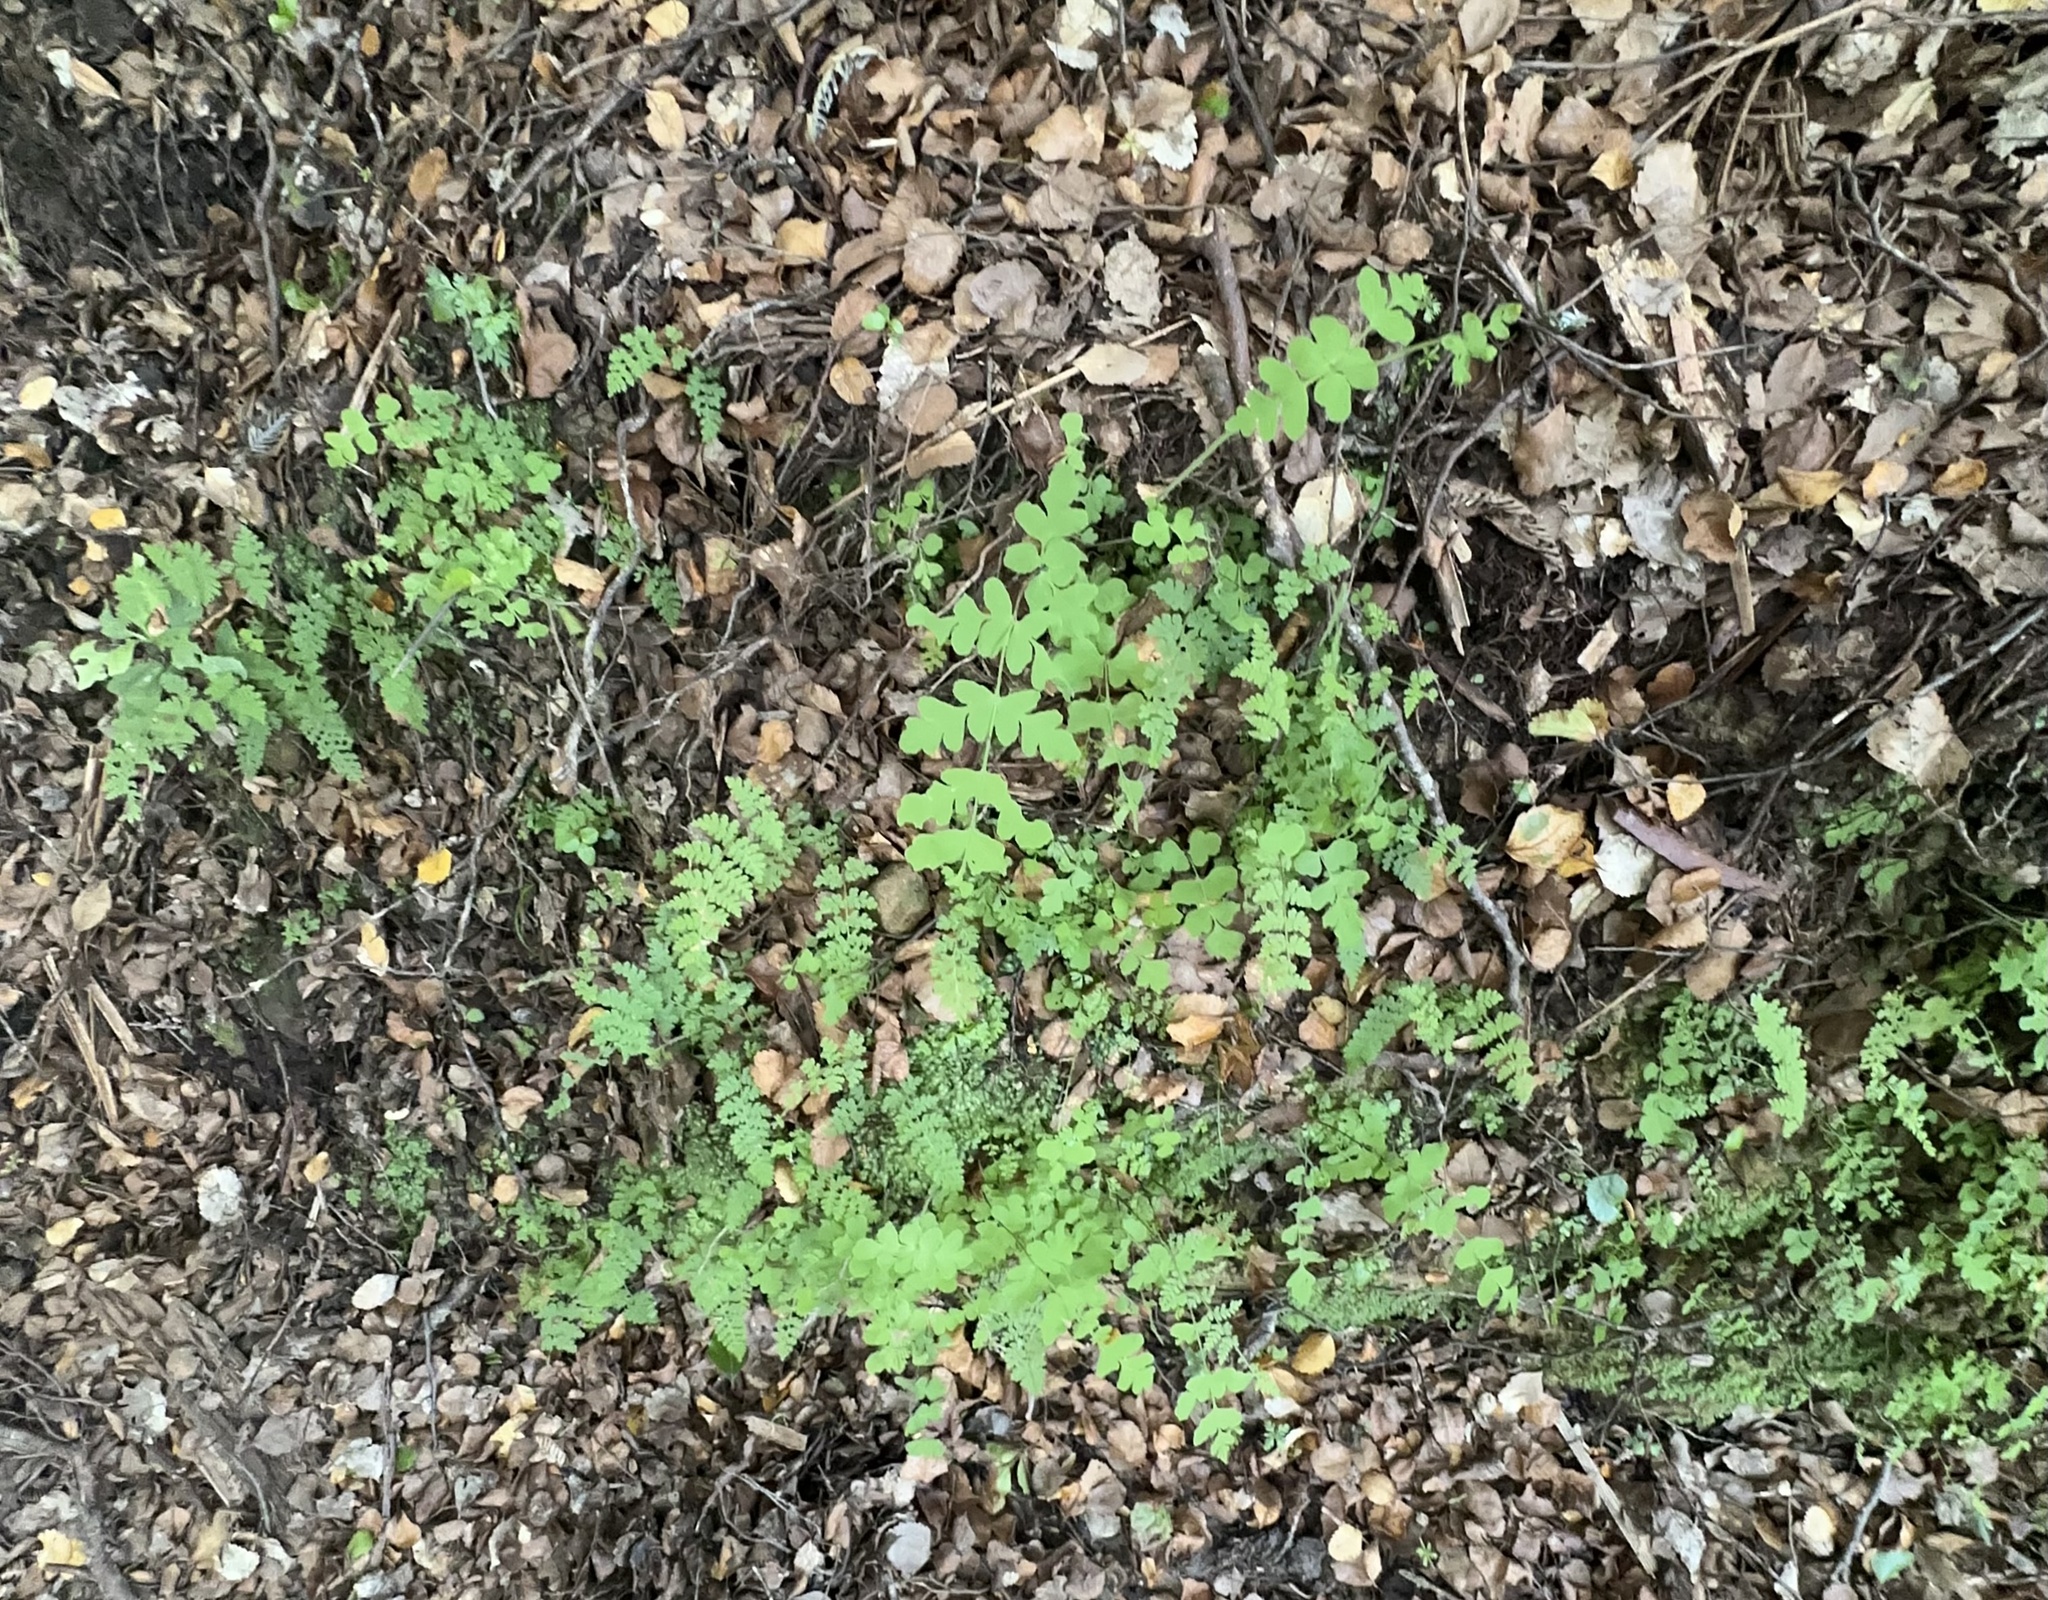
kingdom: Plantae
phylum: Tracheophyta
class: Polypodiopsida
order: Polypodiales
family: Dennstaedtiaceae
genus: Histiopteris
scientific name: Histiopteris incisa
